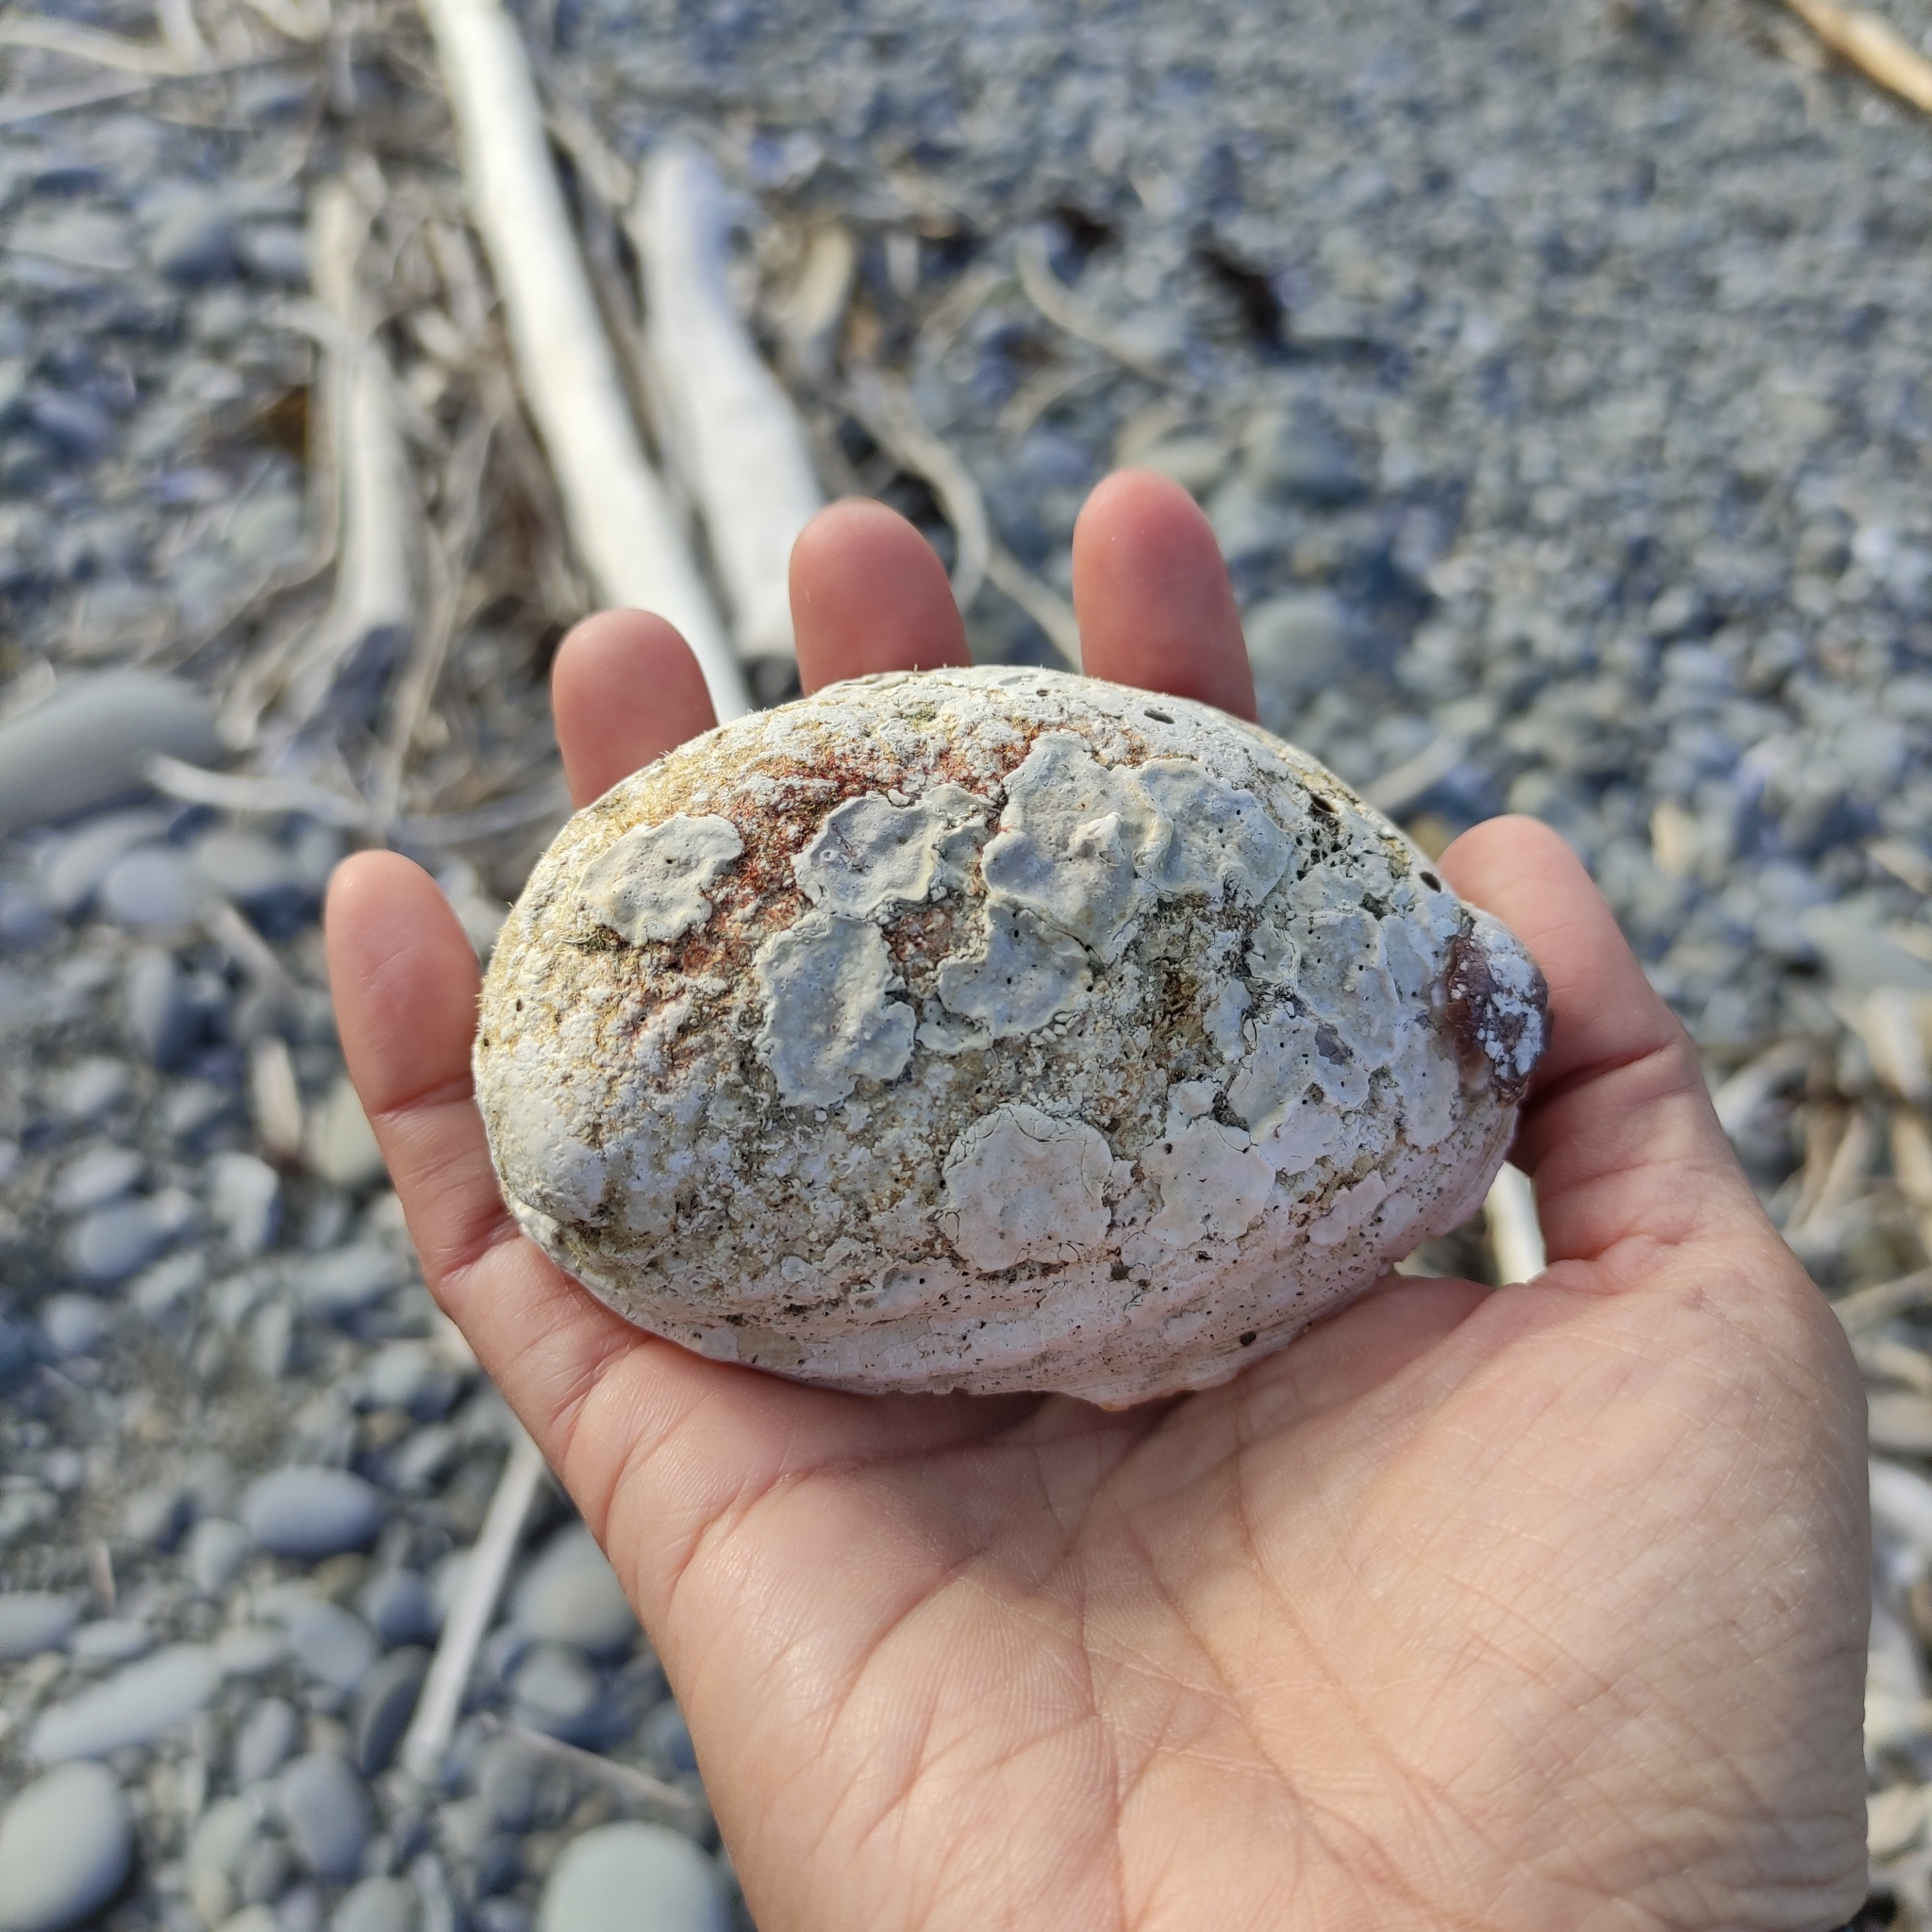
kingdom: Animalia
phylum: Mollusca
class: Gastropoda
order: Lepetellida
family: Haliotidae
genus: Haliotis
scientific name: Haliotis iris
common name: Abalone
